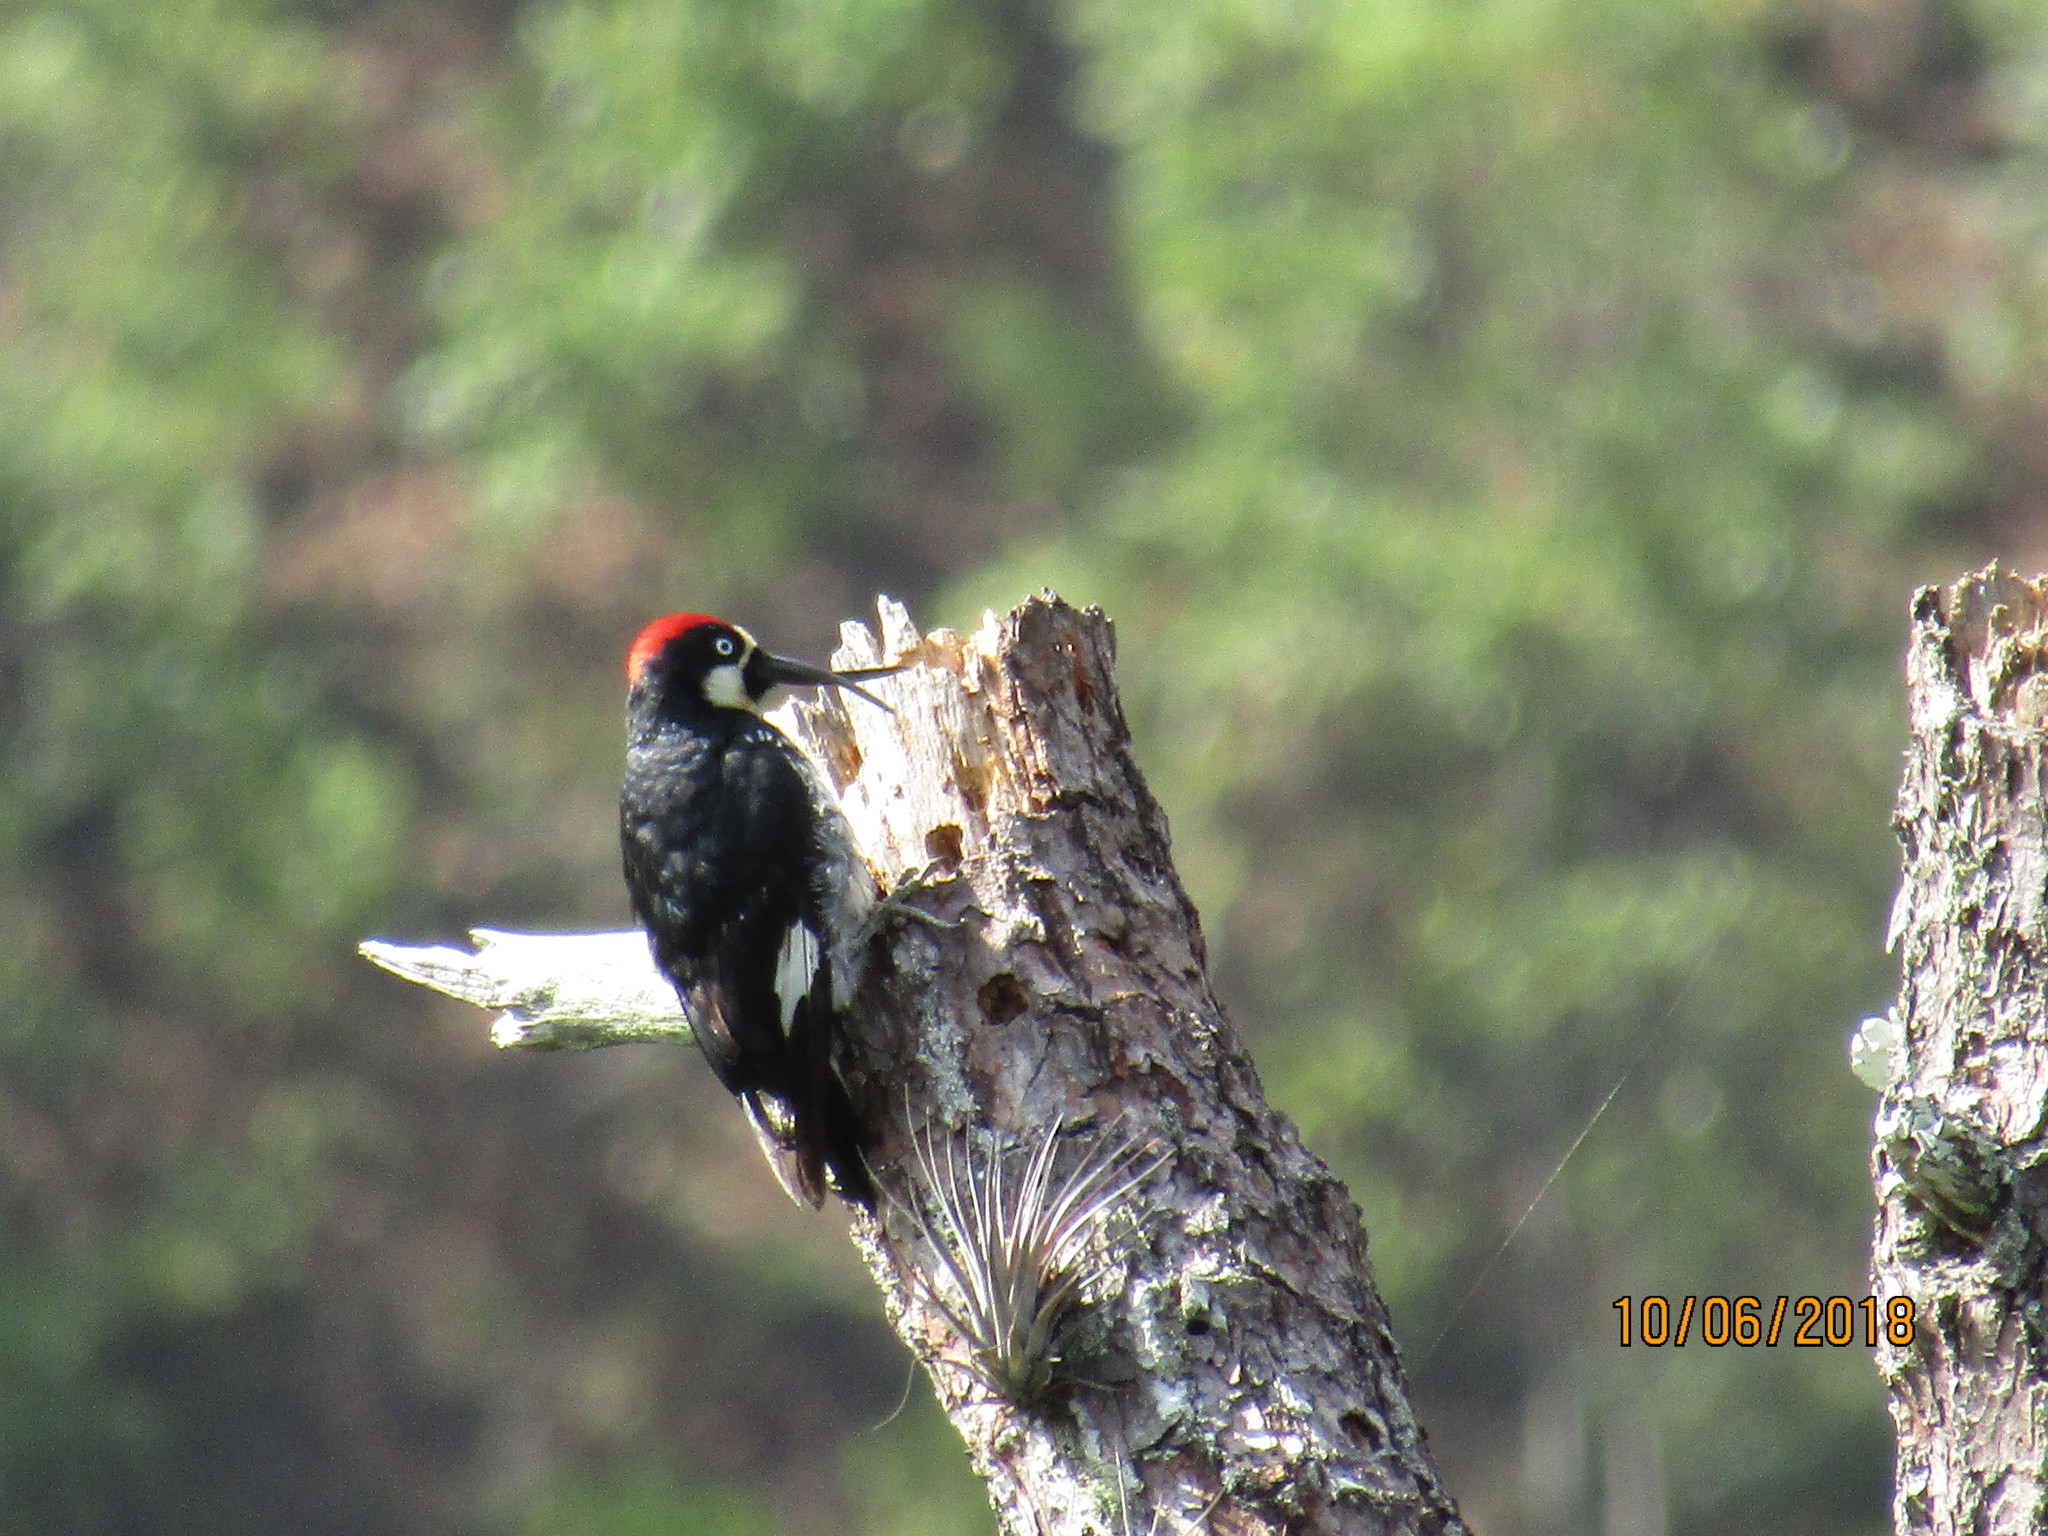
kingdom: Animalia
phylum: Chordata
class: Aves
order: Piciformes
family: Picidae
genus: Melanerpes
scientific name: Melanerpes formicivorus
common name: Acorn woodpecker
